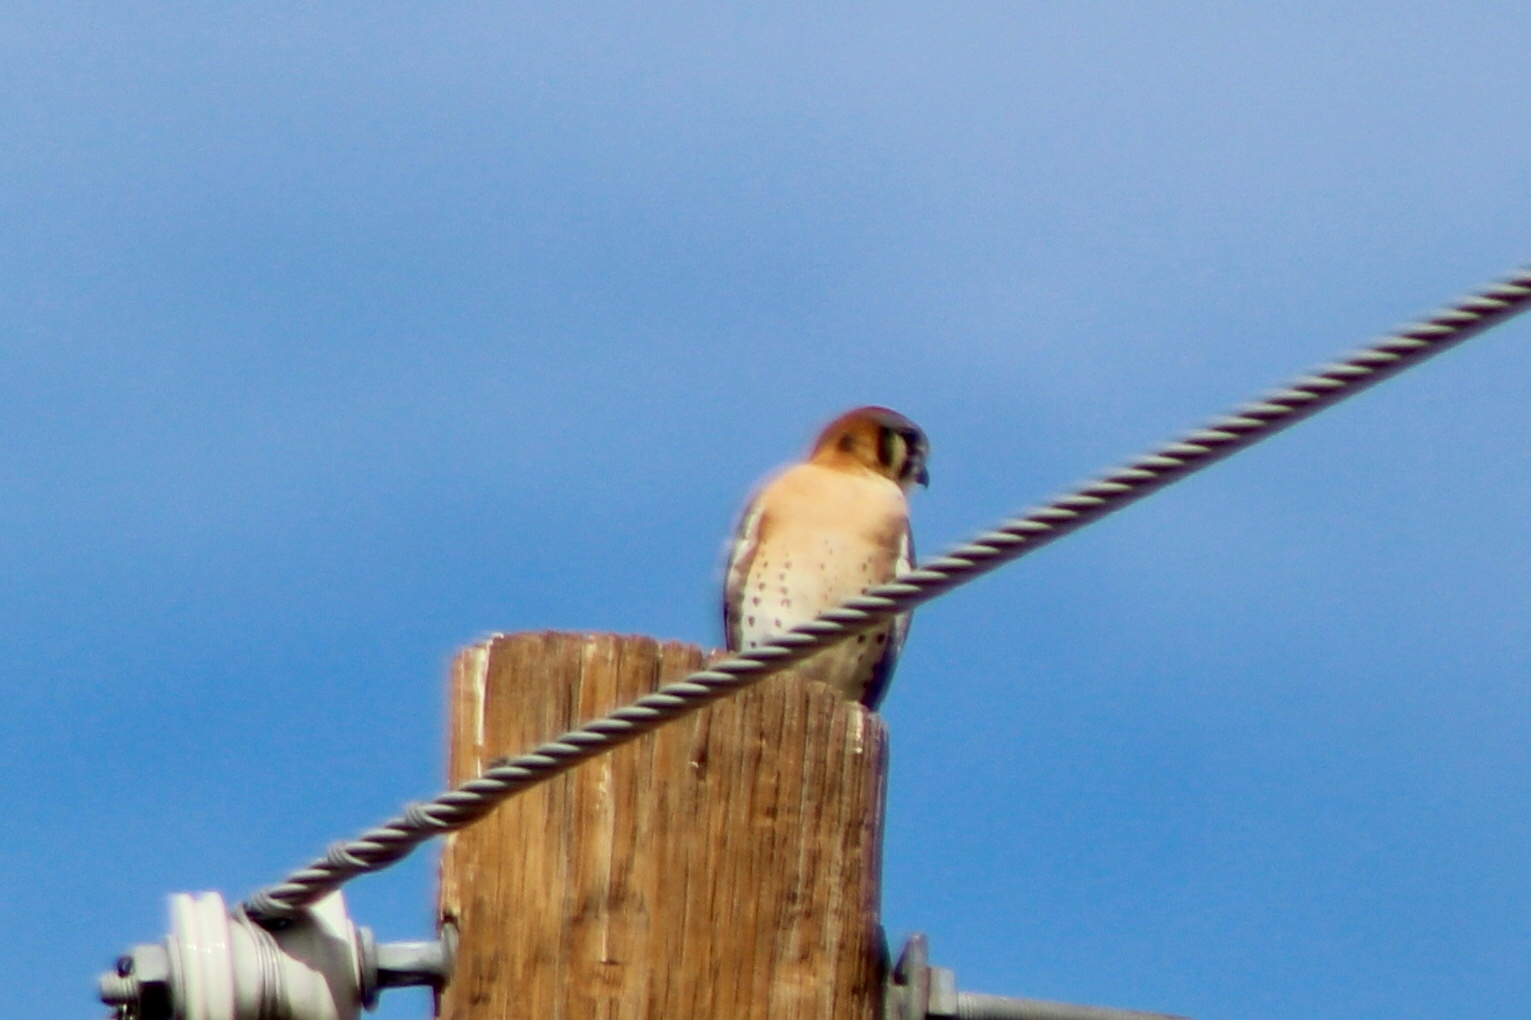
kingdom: Animalia
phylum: Chordata
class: Aves
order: Falconiformes
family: Falconidae
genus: Falco
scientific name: Falco sparverius
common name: American kestrel
